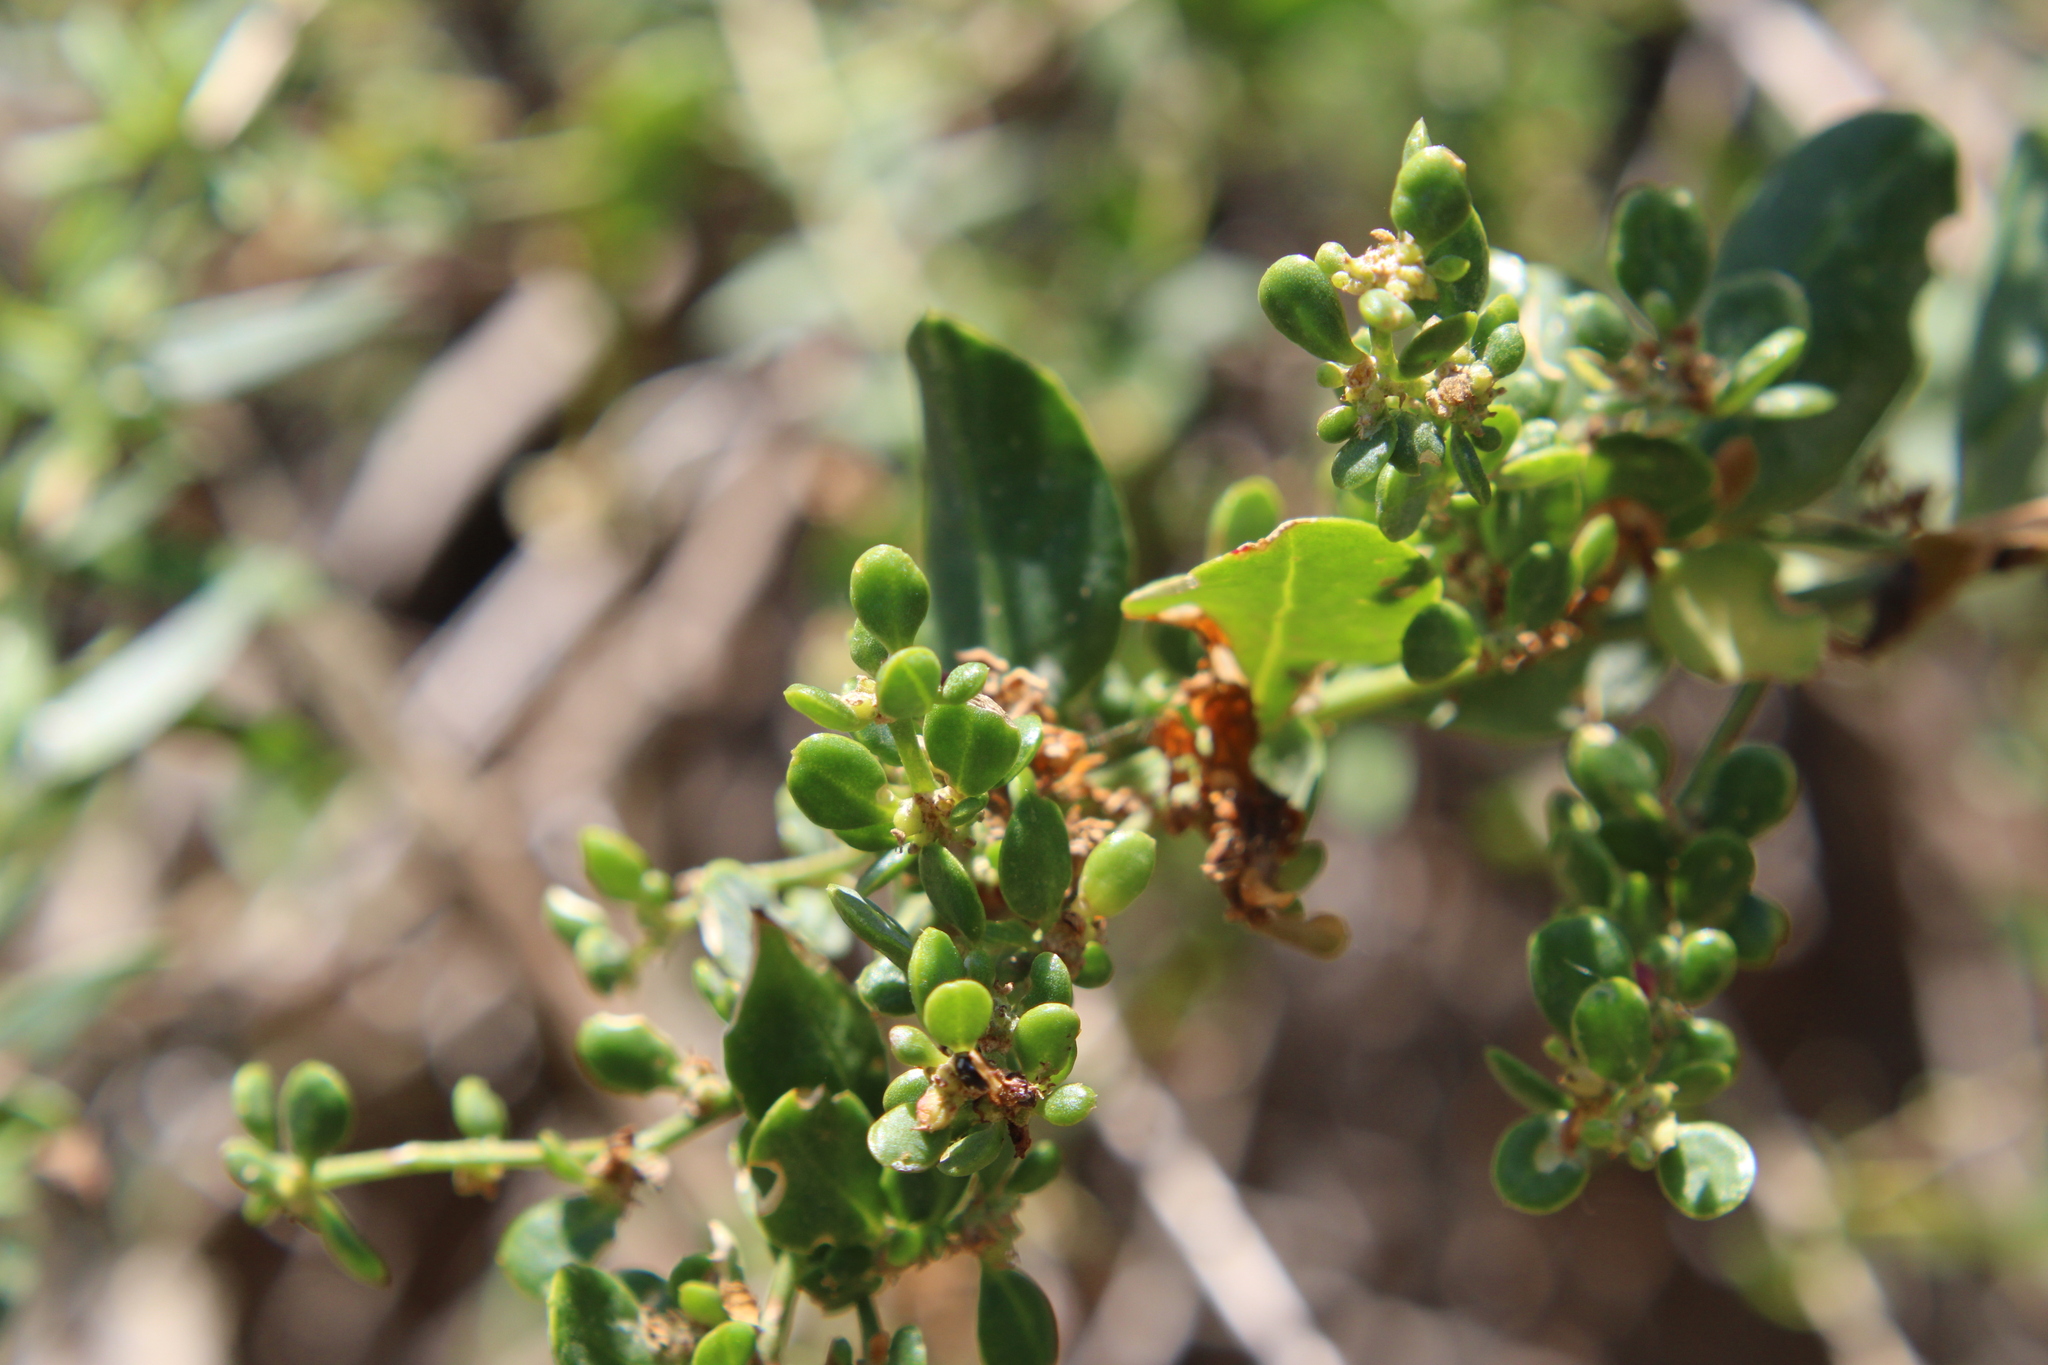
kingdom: Plantae
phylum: Tracheophyta
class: Magnoliopsida
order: Caryophyllales
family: Amaranthaceae
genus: Holmbergia
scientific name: Holmbergia tweedii
